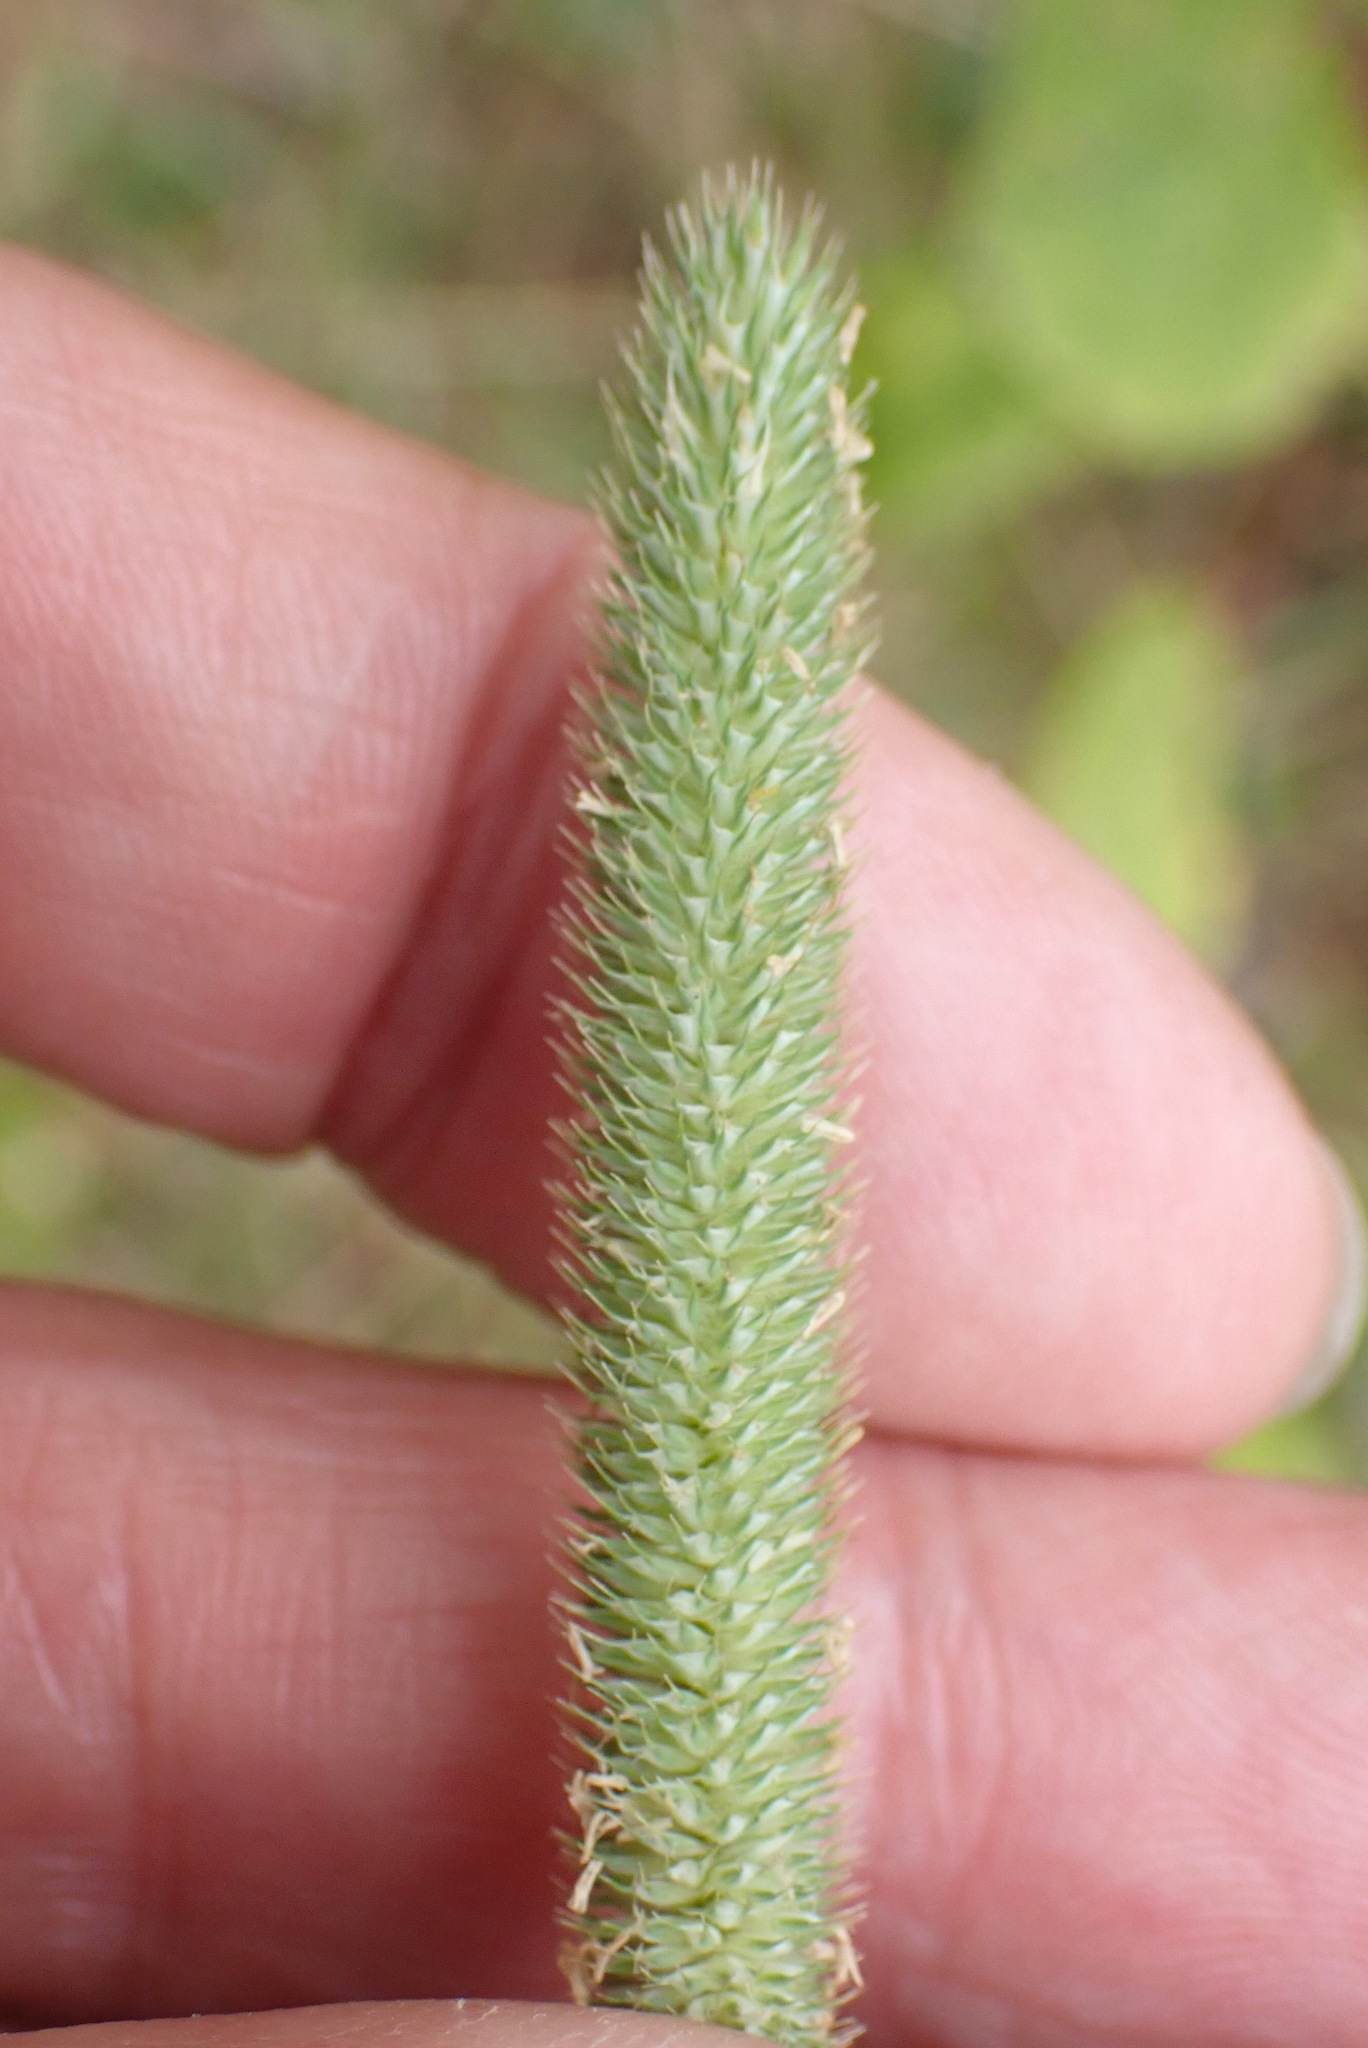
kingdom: Plantae
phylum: Tracheophyta
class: Liliopsida
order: Poales
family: Poaceae
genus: Phleum
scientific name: Phleum pratense
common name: Timothy grass
